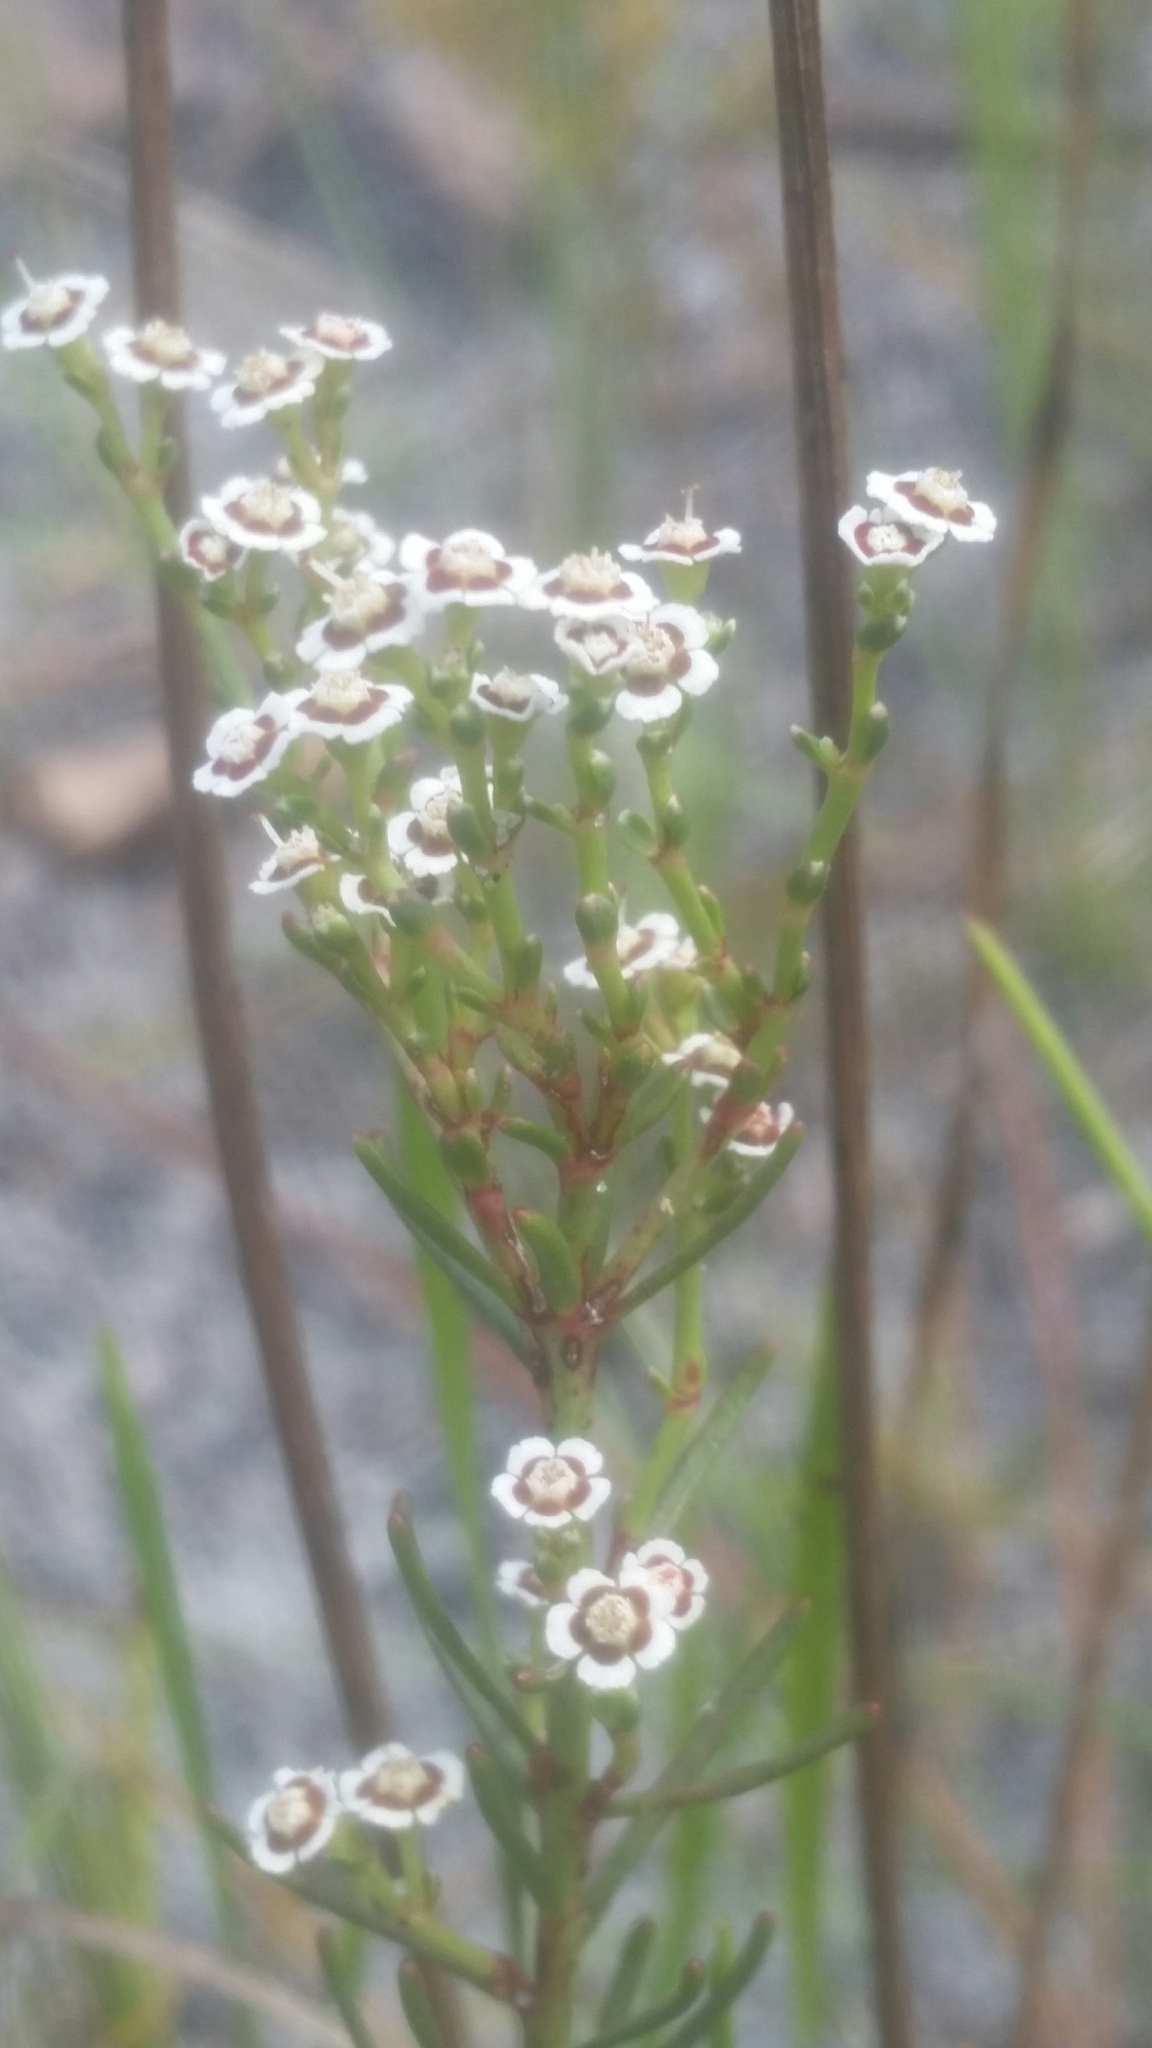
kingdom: Plantae
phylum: Tracheophyta
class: Magnoliopsida
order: Malpighiales
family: Euphorbiaceae
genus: Euphorbia
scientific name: Euphorbia polyphylla
